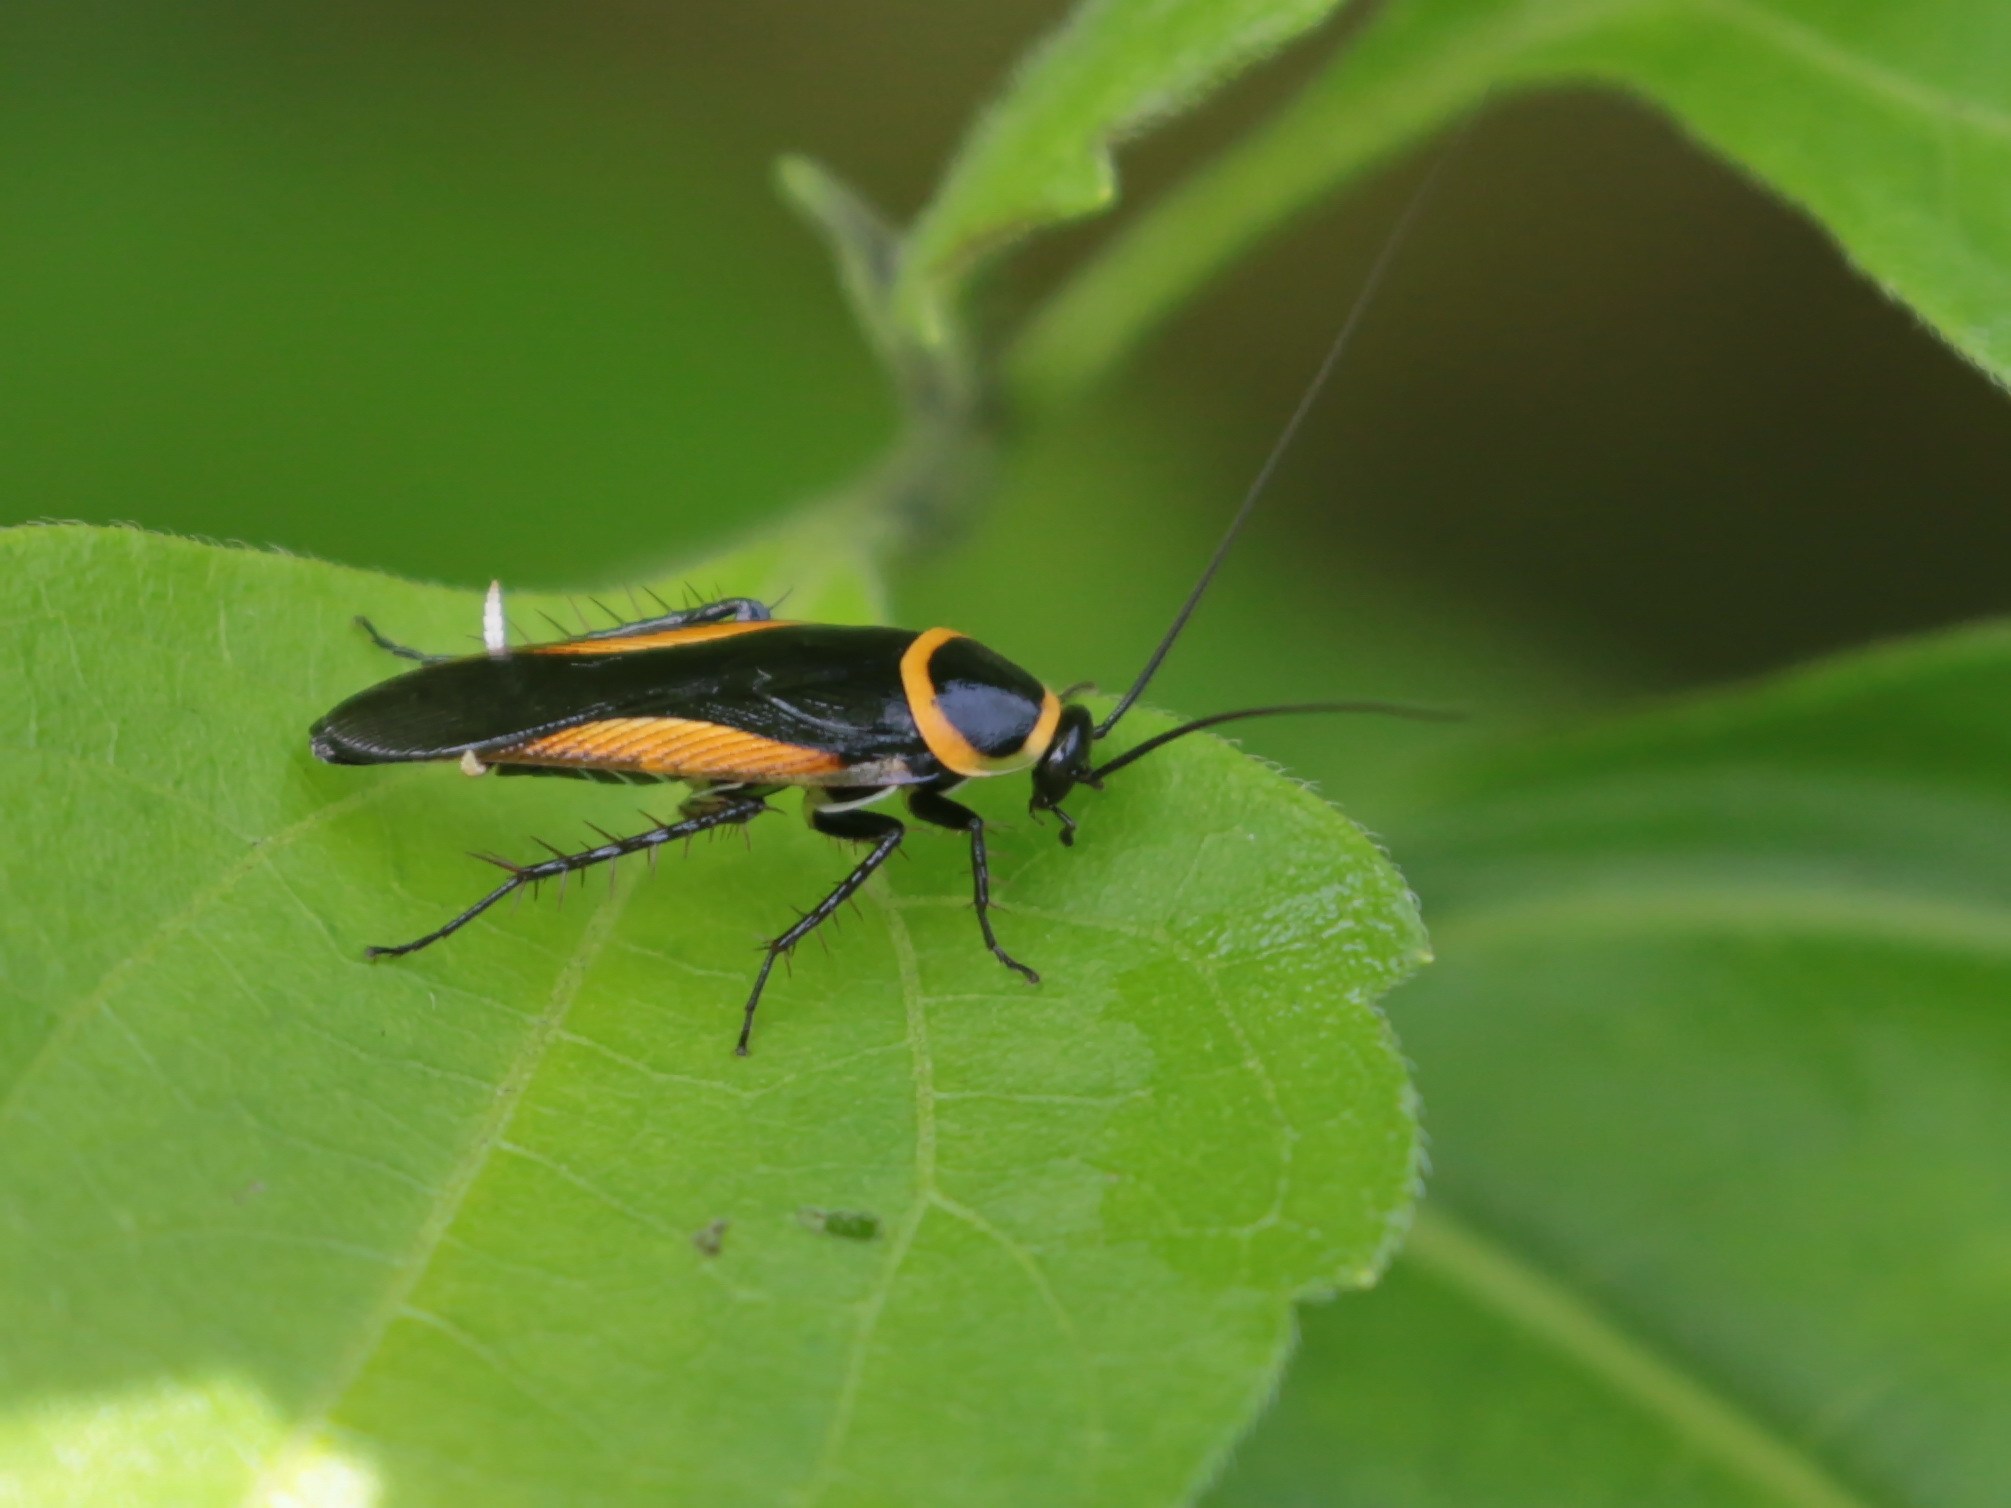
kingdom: Animalia
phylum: Arthropoda
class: Insecta
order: Blattodea
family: Ectobiidae
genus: Hemithyrsocera
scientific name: Hemithyrsocera vittata
